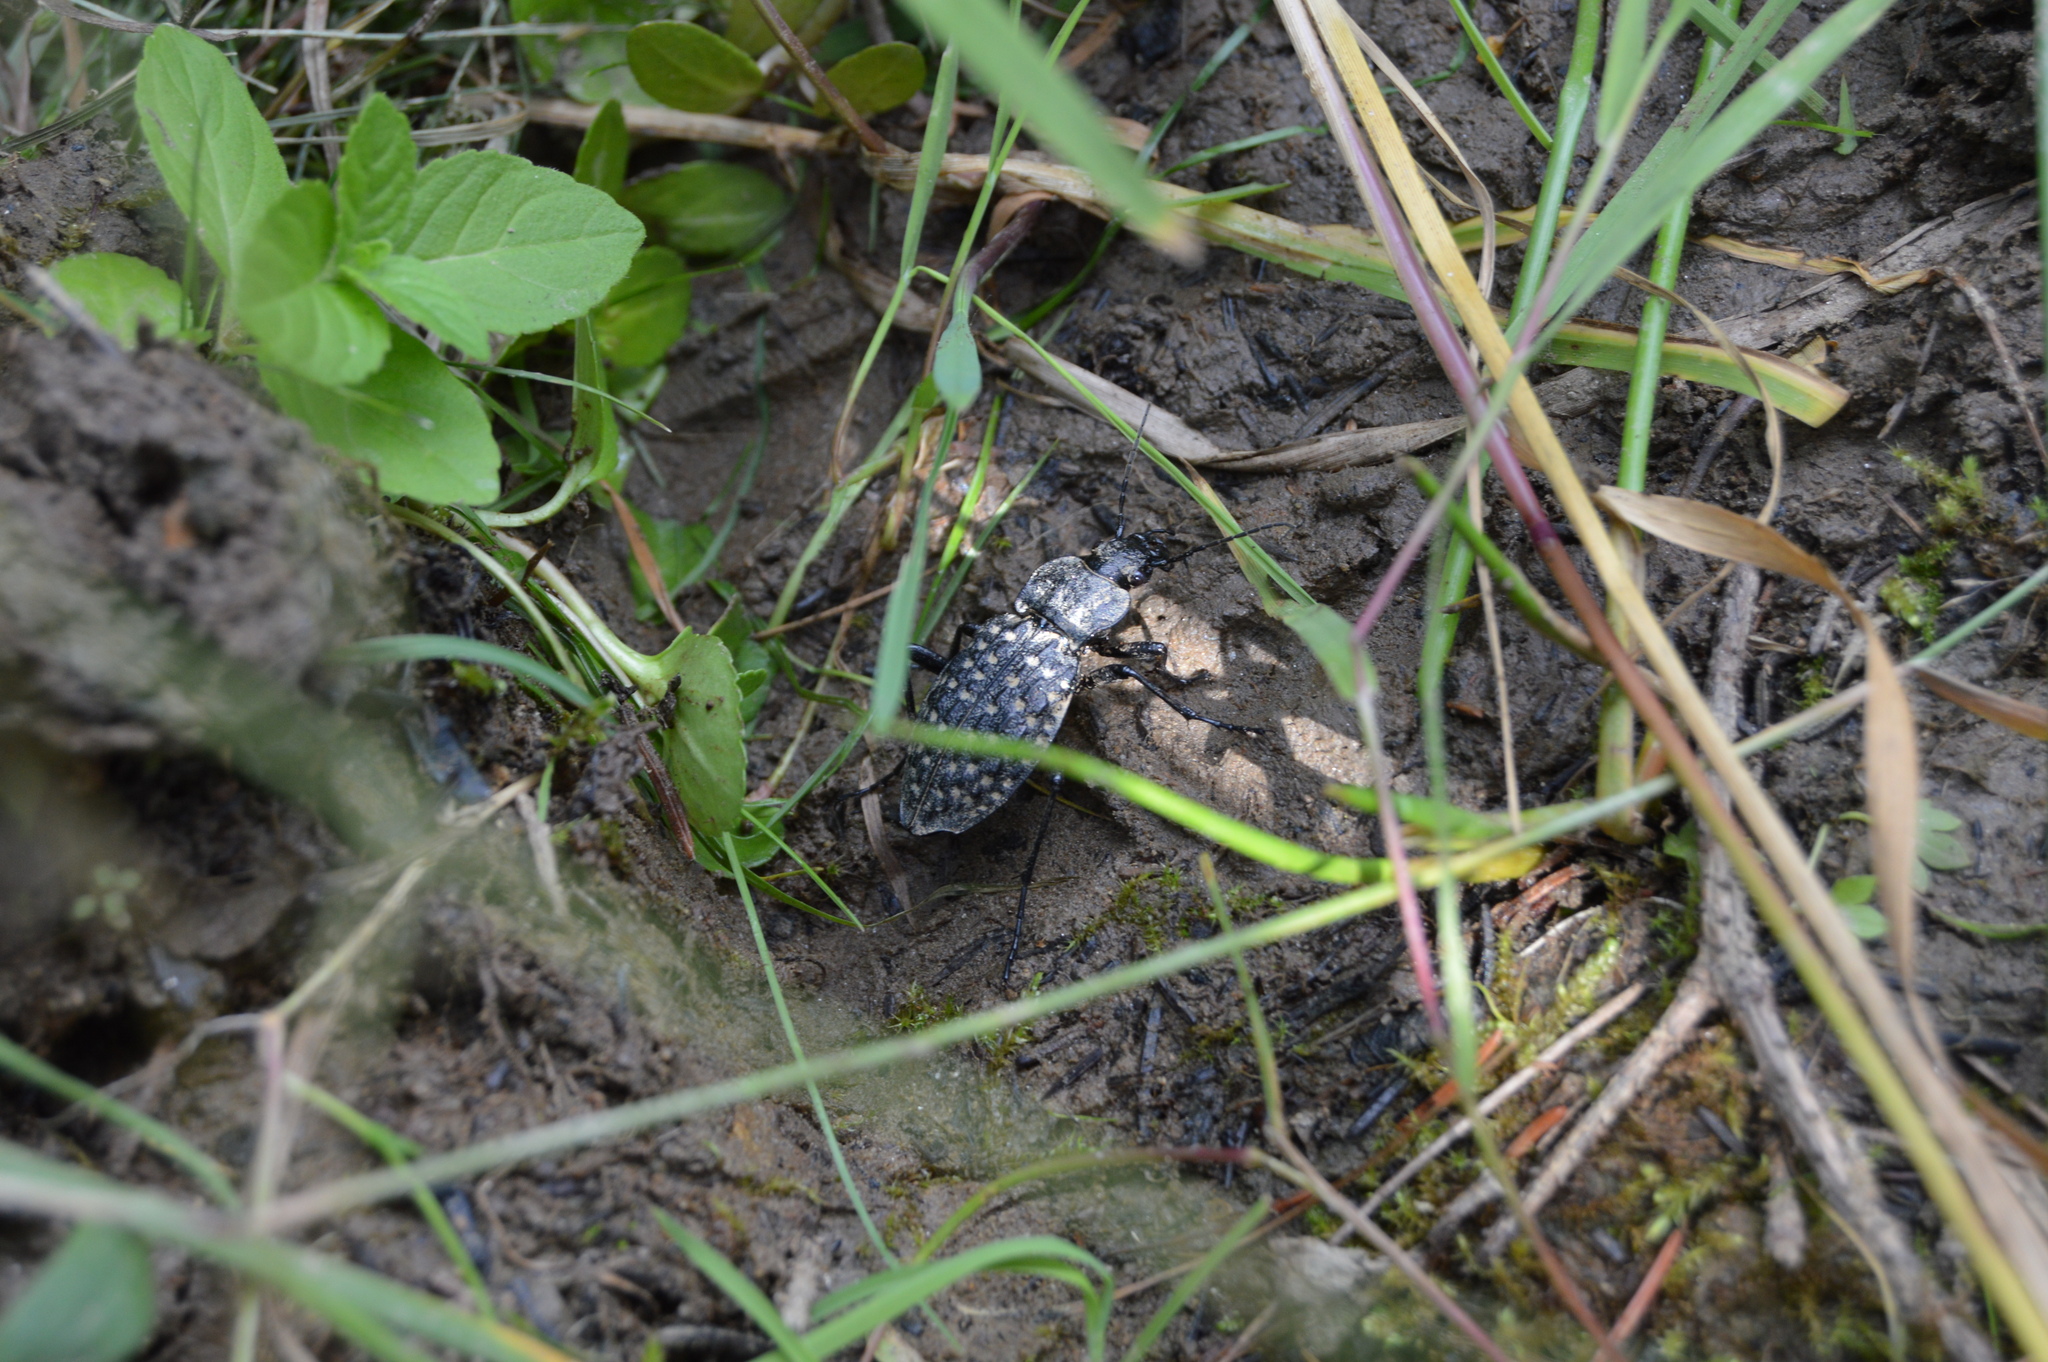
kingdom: Animalia
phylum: Arthropoda
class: Insecta
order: Coleoptera
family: Carabidae
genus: Carabus
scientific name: Carabus variolosus
